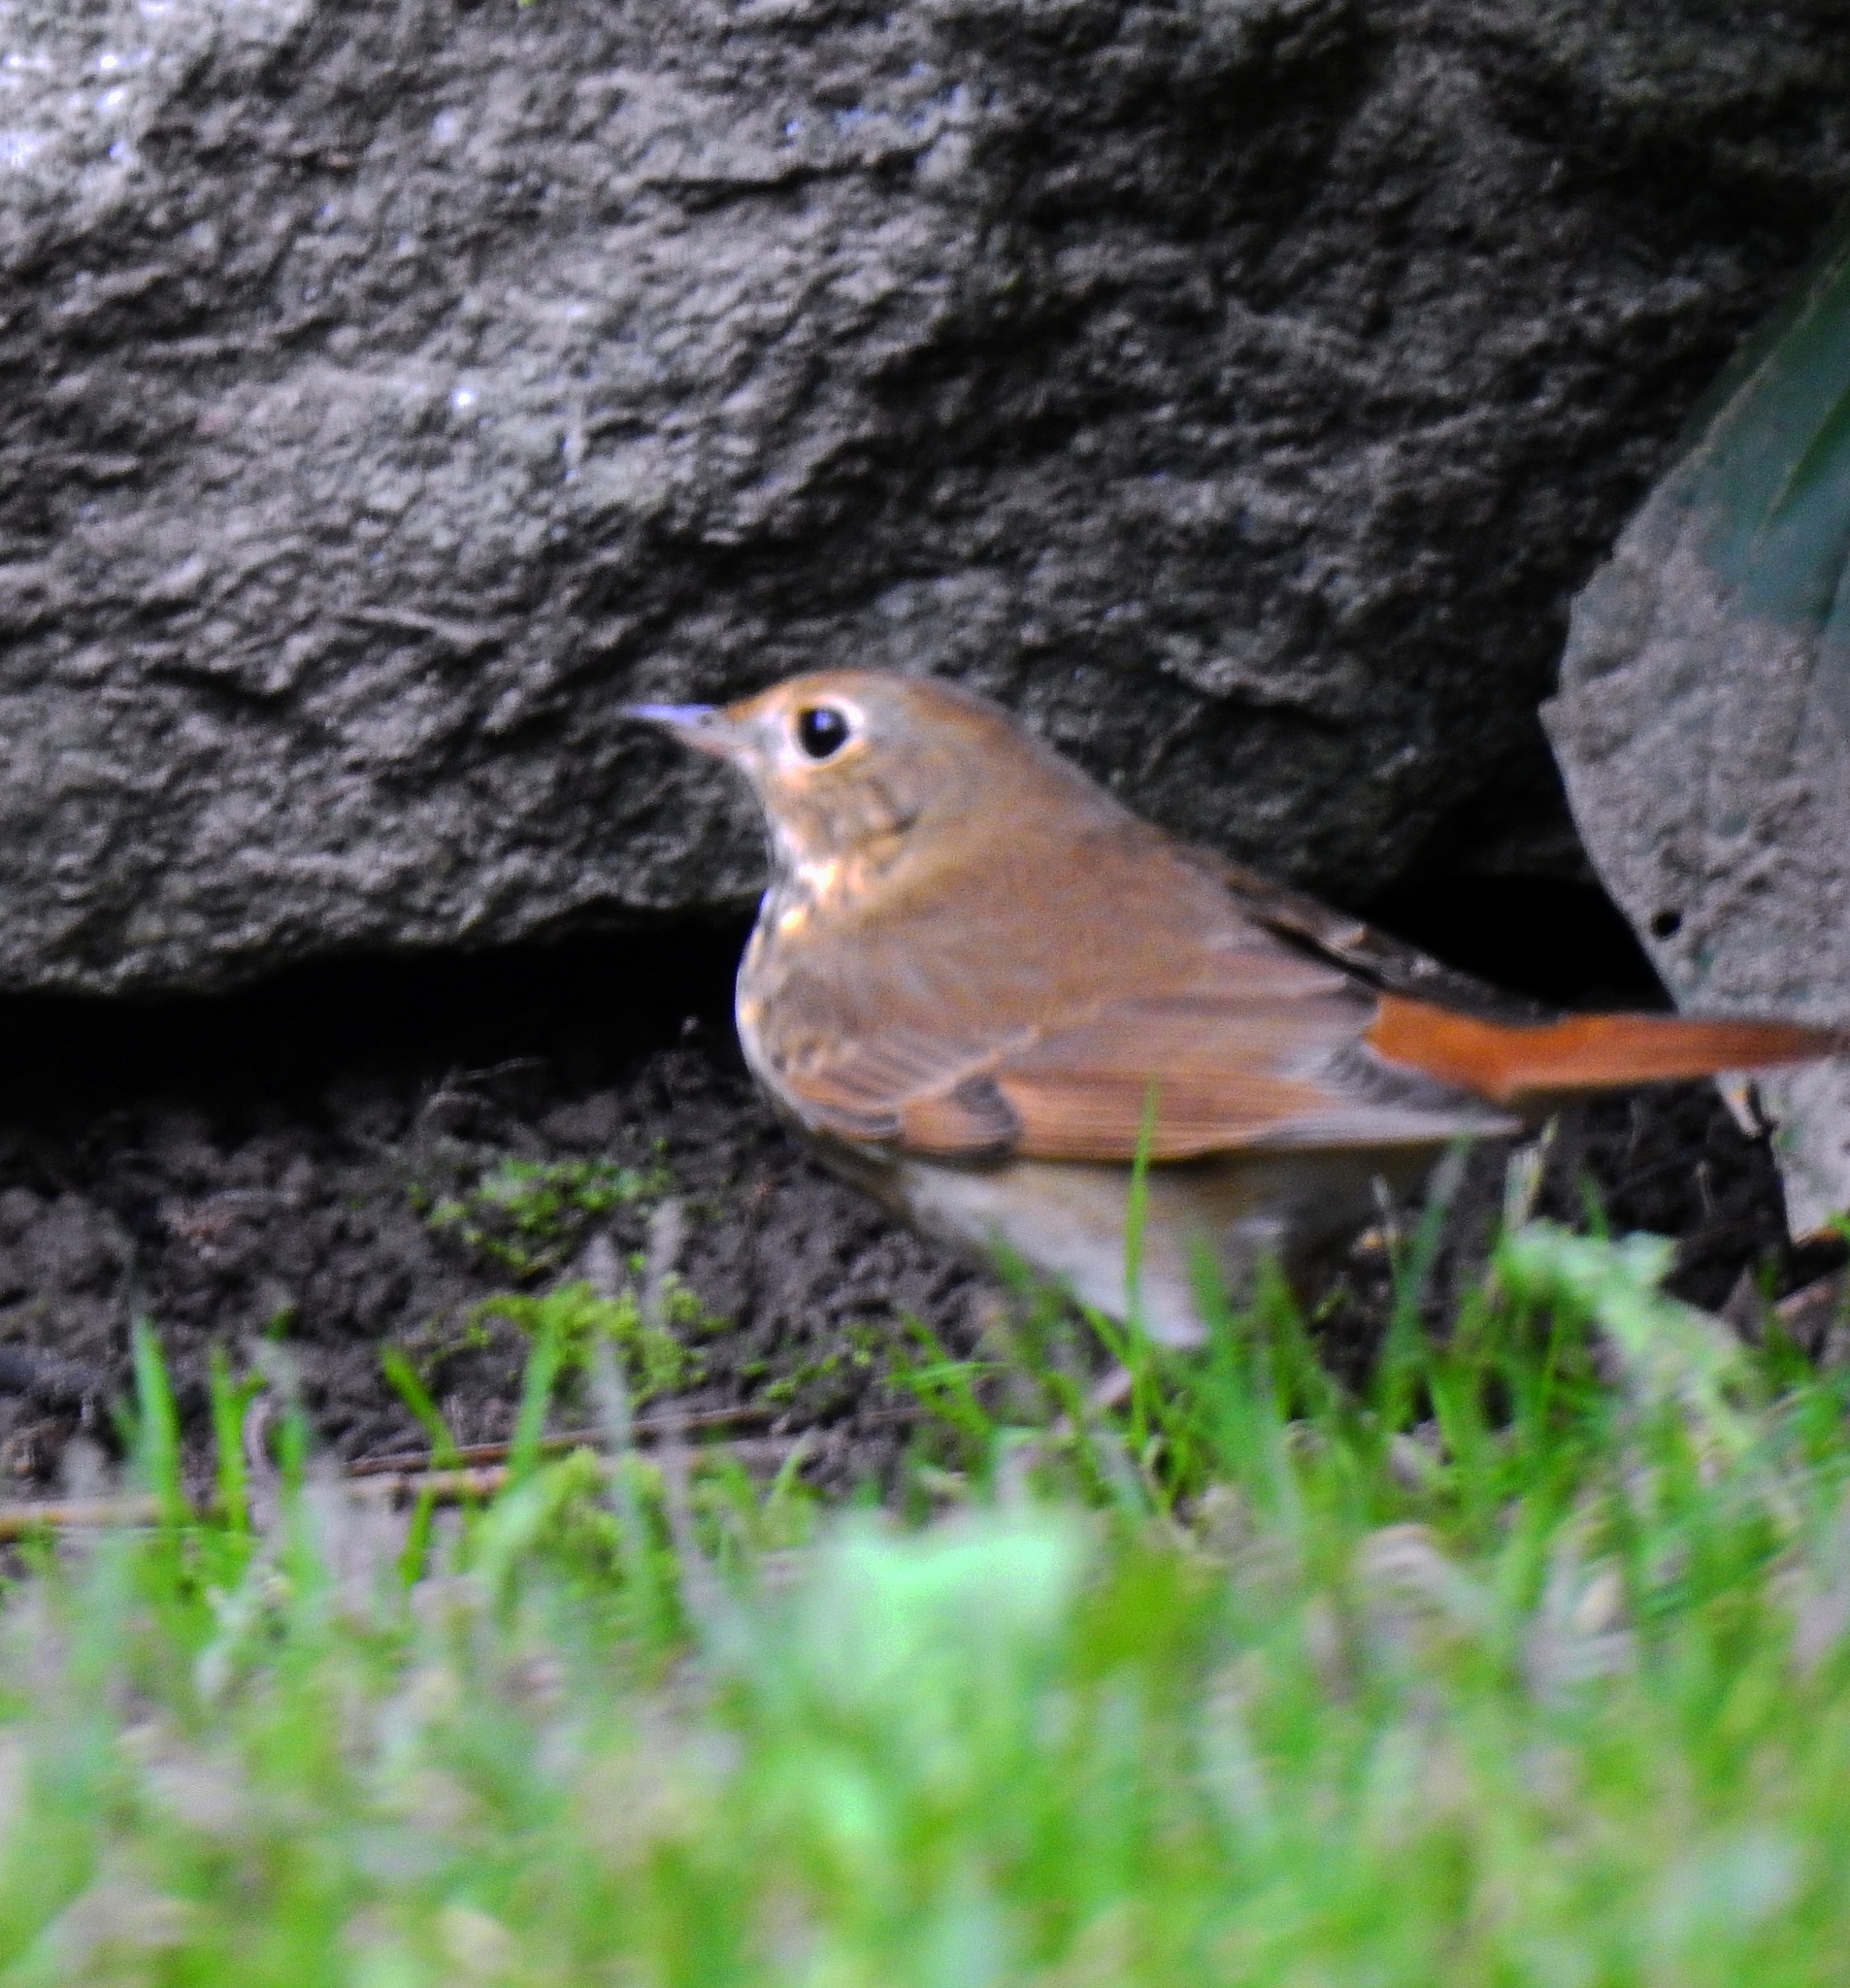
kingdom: Animalia
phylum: Chordata
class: Aves
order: Passeriformes
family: Turdidae
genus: Catharus
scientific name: Catharus guttatus
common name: Hermit thrush
